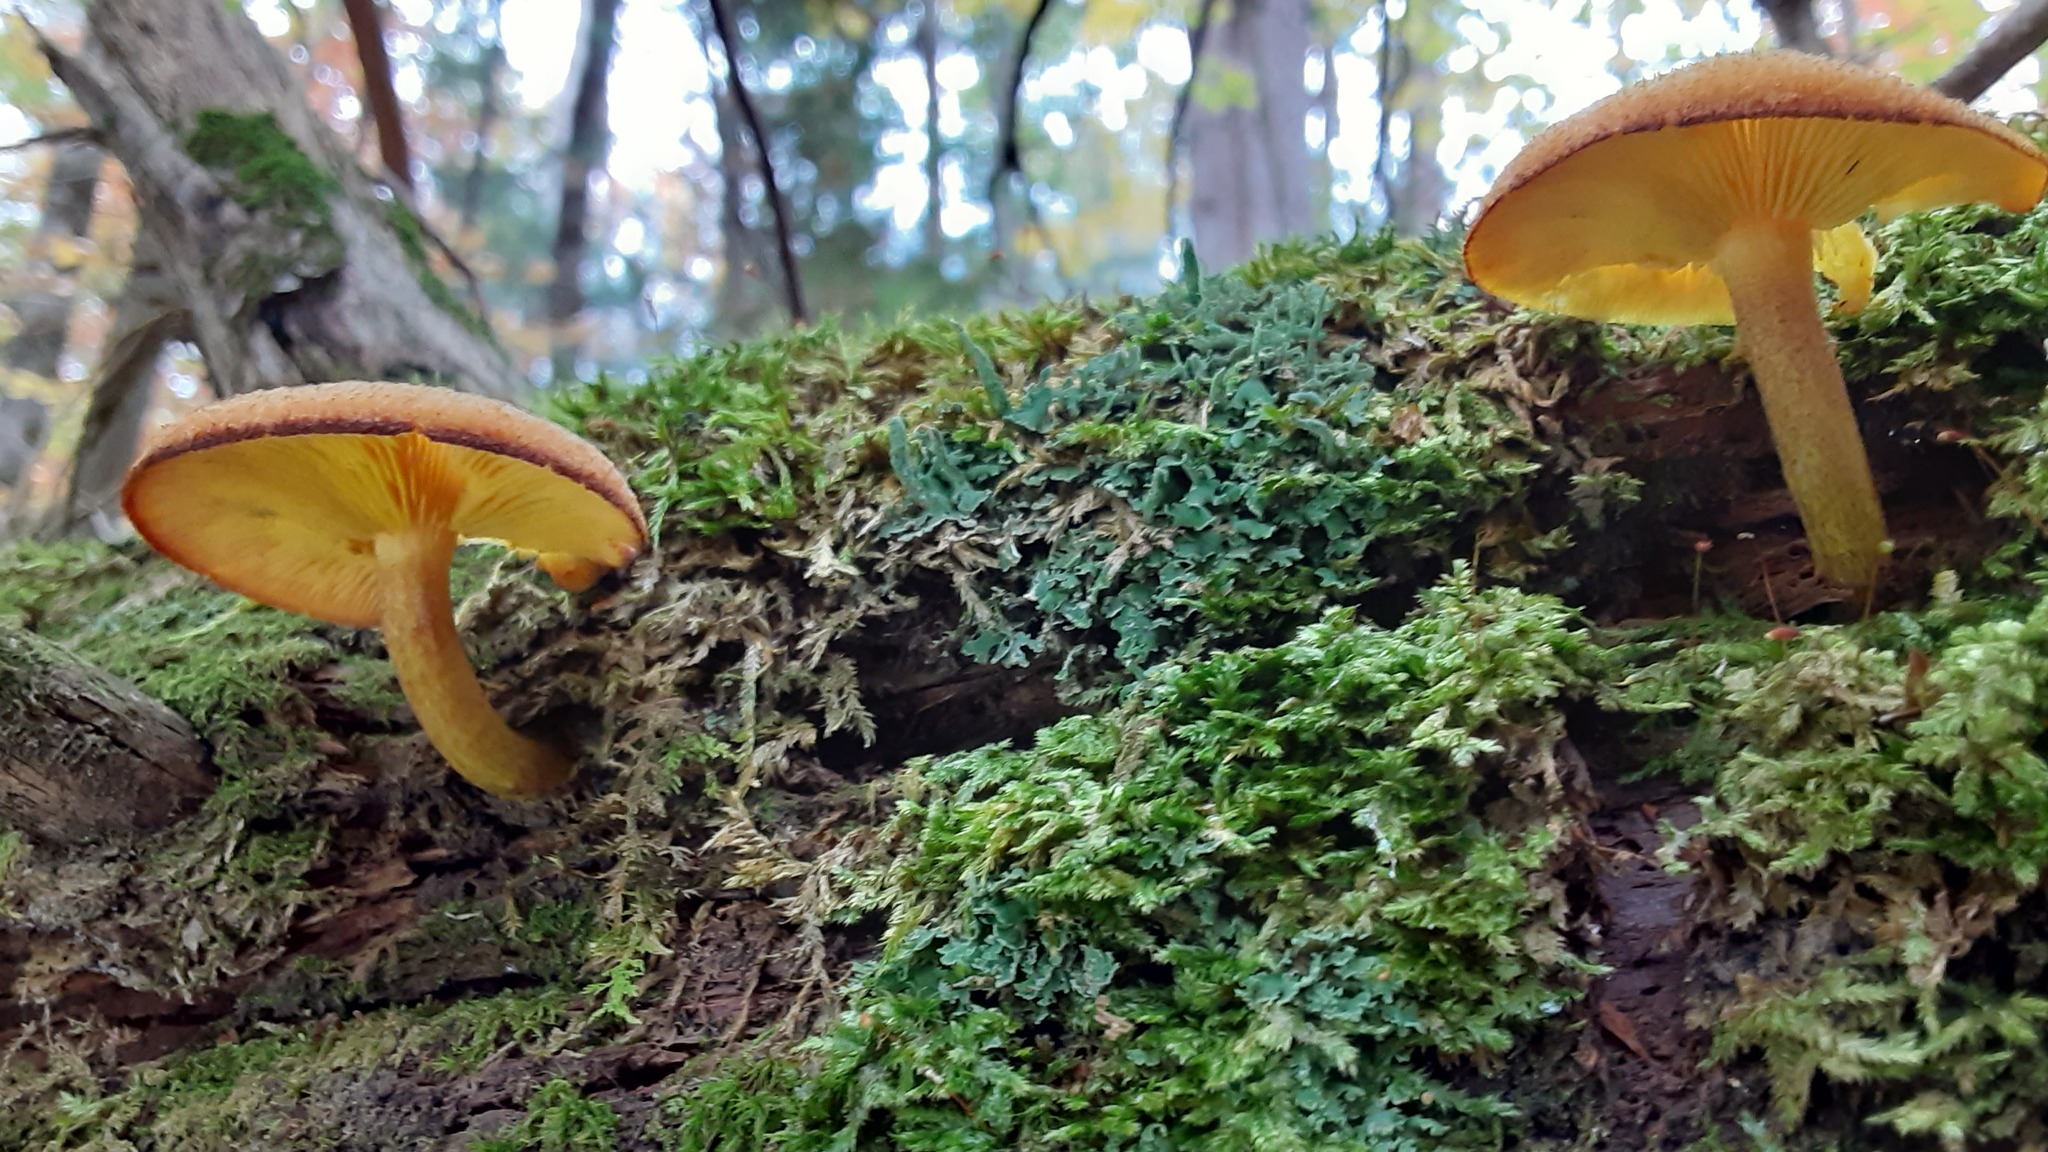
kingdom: Fungi
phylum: Basidiomycota
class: Agaricomycetes
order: Agaricales
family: Tricholomataceae
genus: Tricholomopsis
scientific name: Tricholomopsis decora
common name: Prunes and custard
